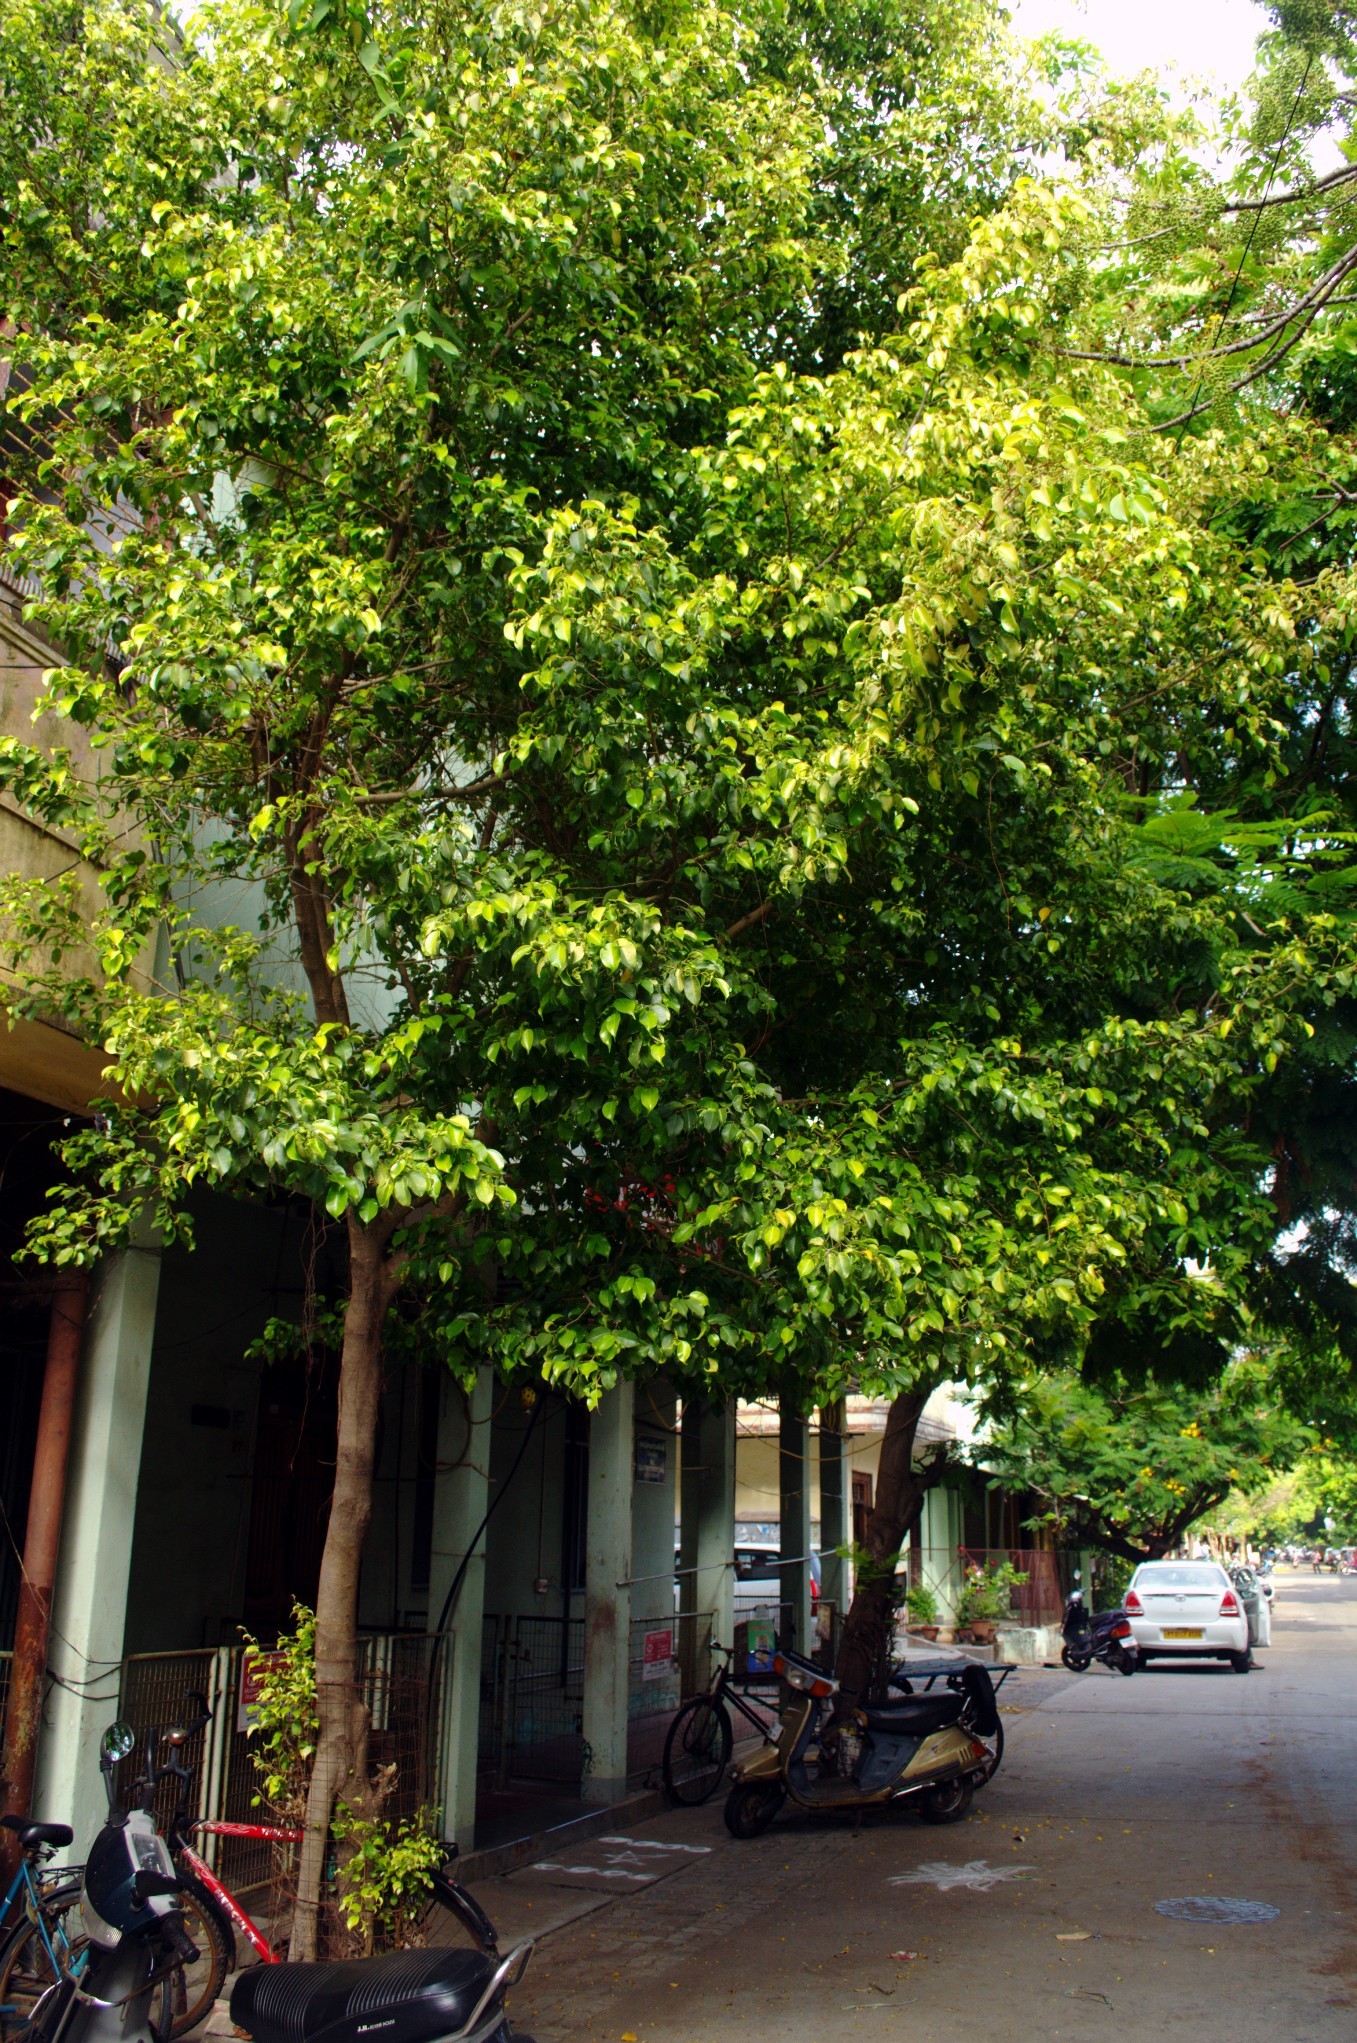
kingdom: Plantae
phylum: Tracheophyta
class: Magnoliopsida
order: Rosales
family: Moraceae
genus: Ficus
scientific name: Ficus benjamina
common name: Weeping fig
